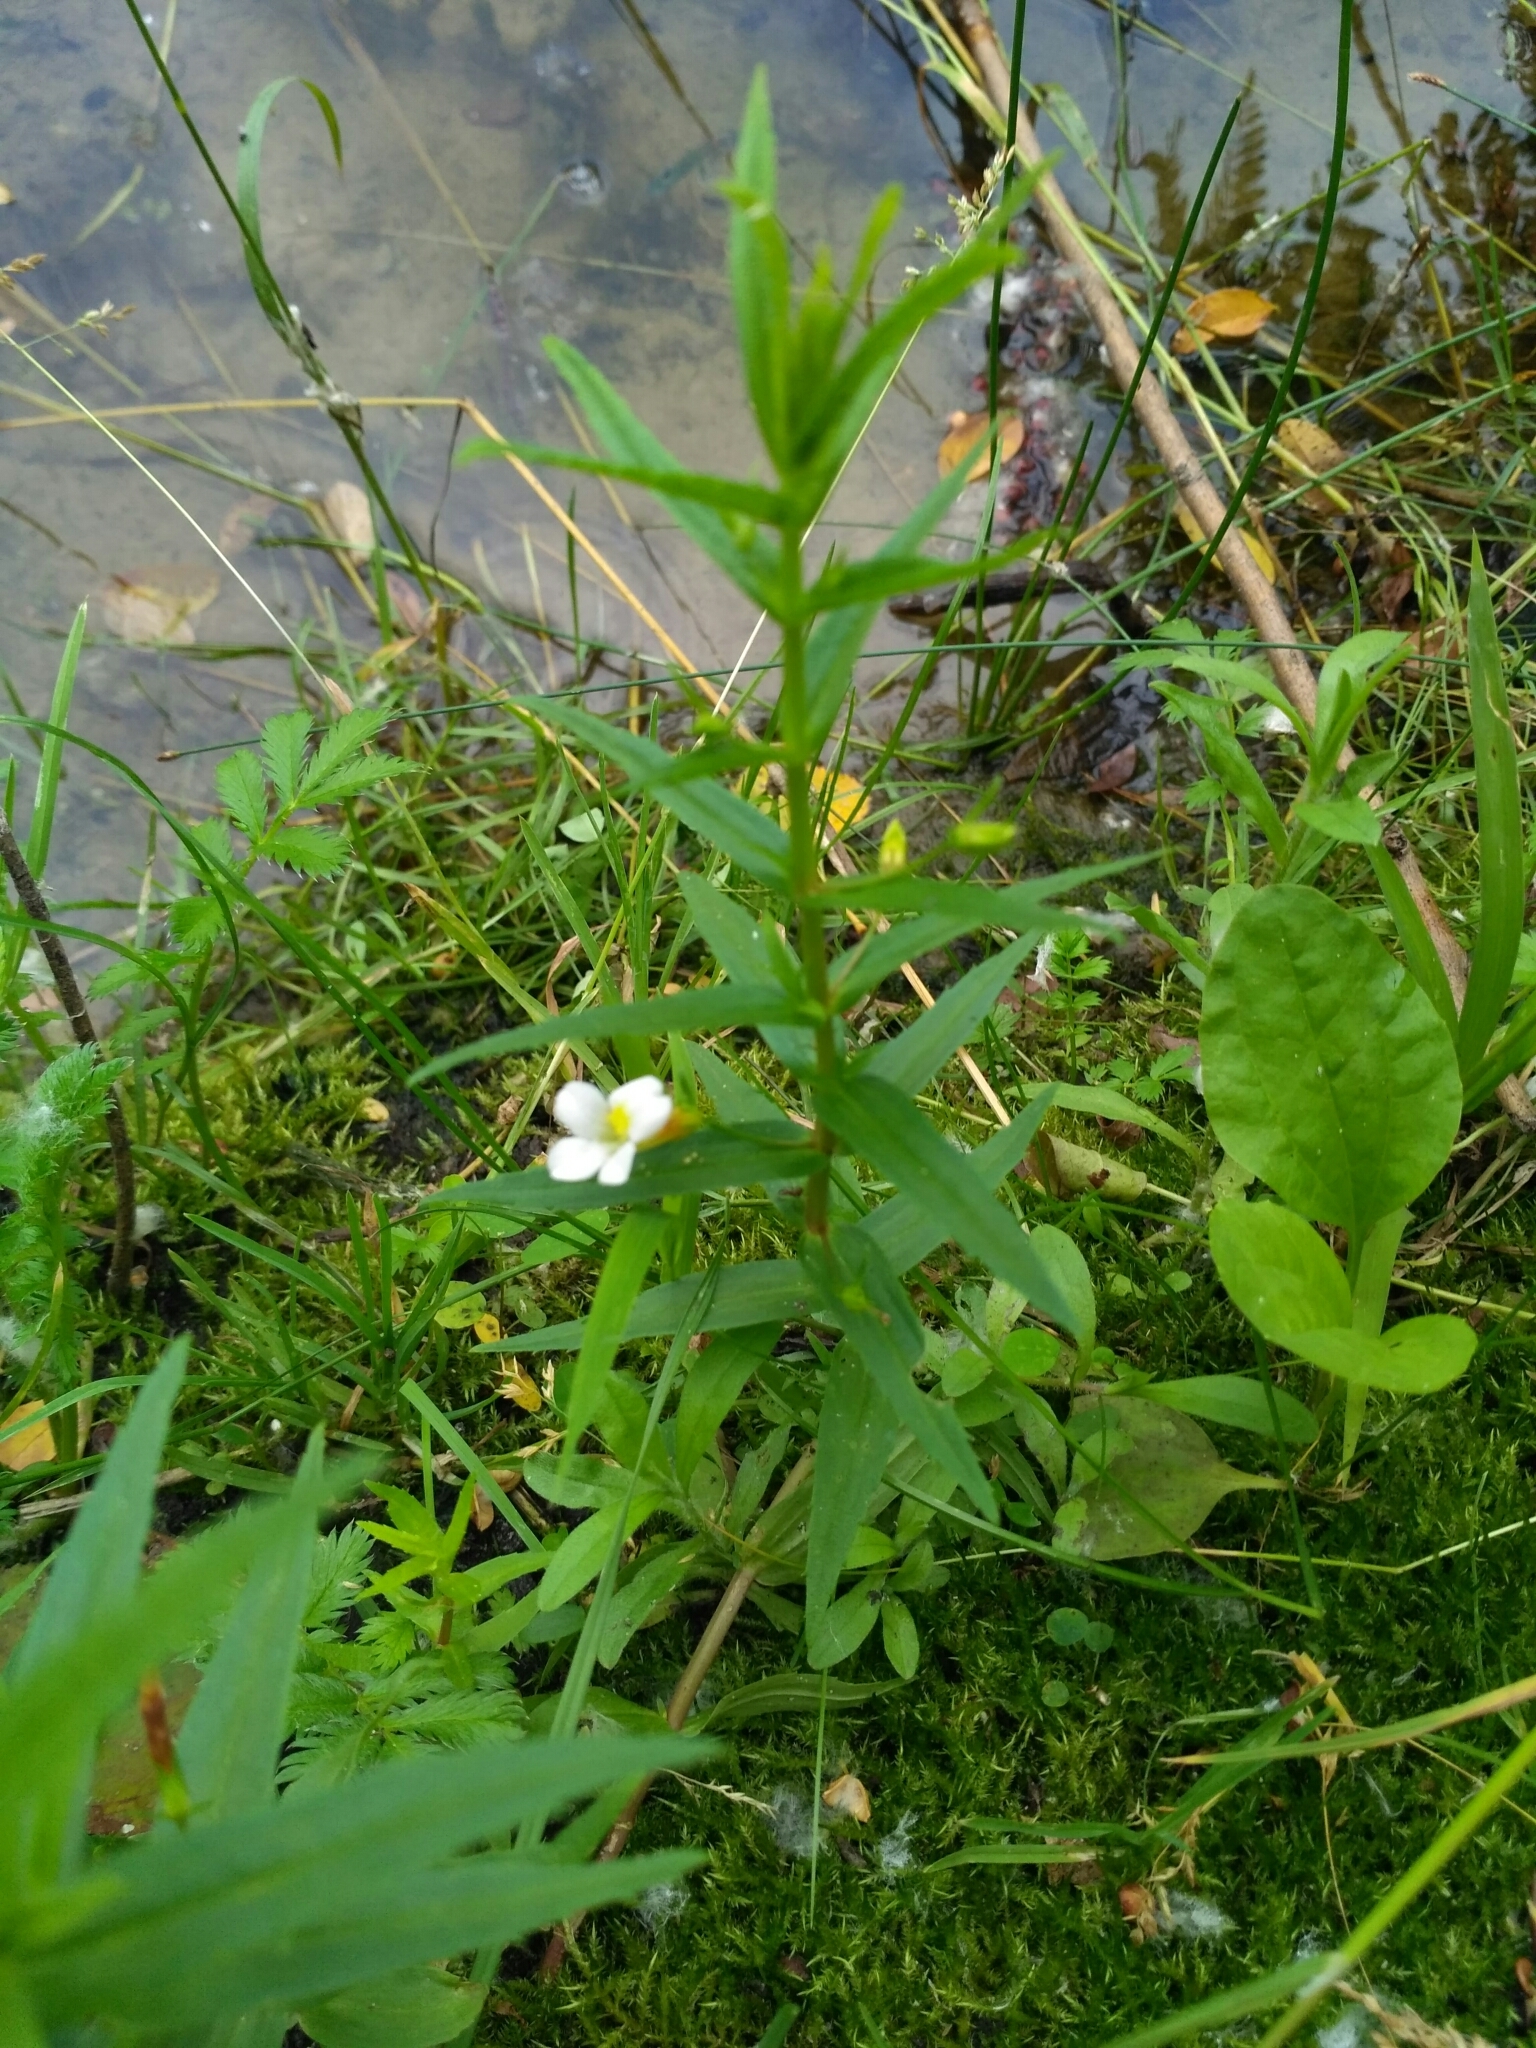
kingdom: Plantae
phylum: Tracheophyta
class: Magnoliopsida
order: Lamiales
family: Plantaginaceae
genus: Gratiola
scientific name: Gratiola officinalis
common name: Gratiola
